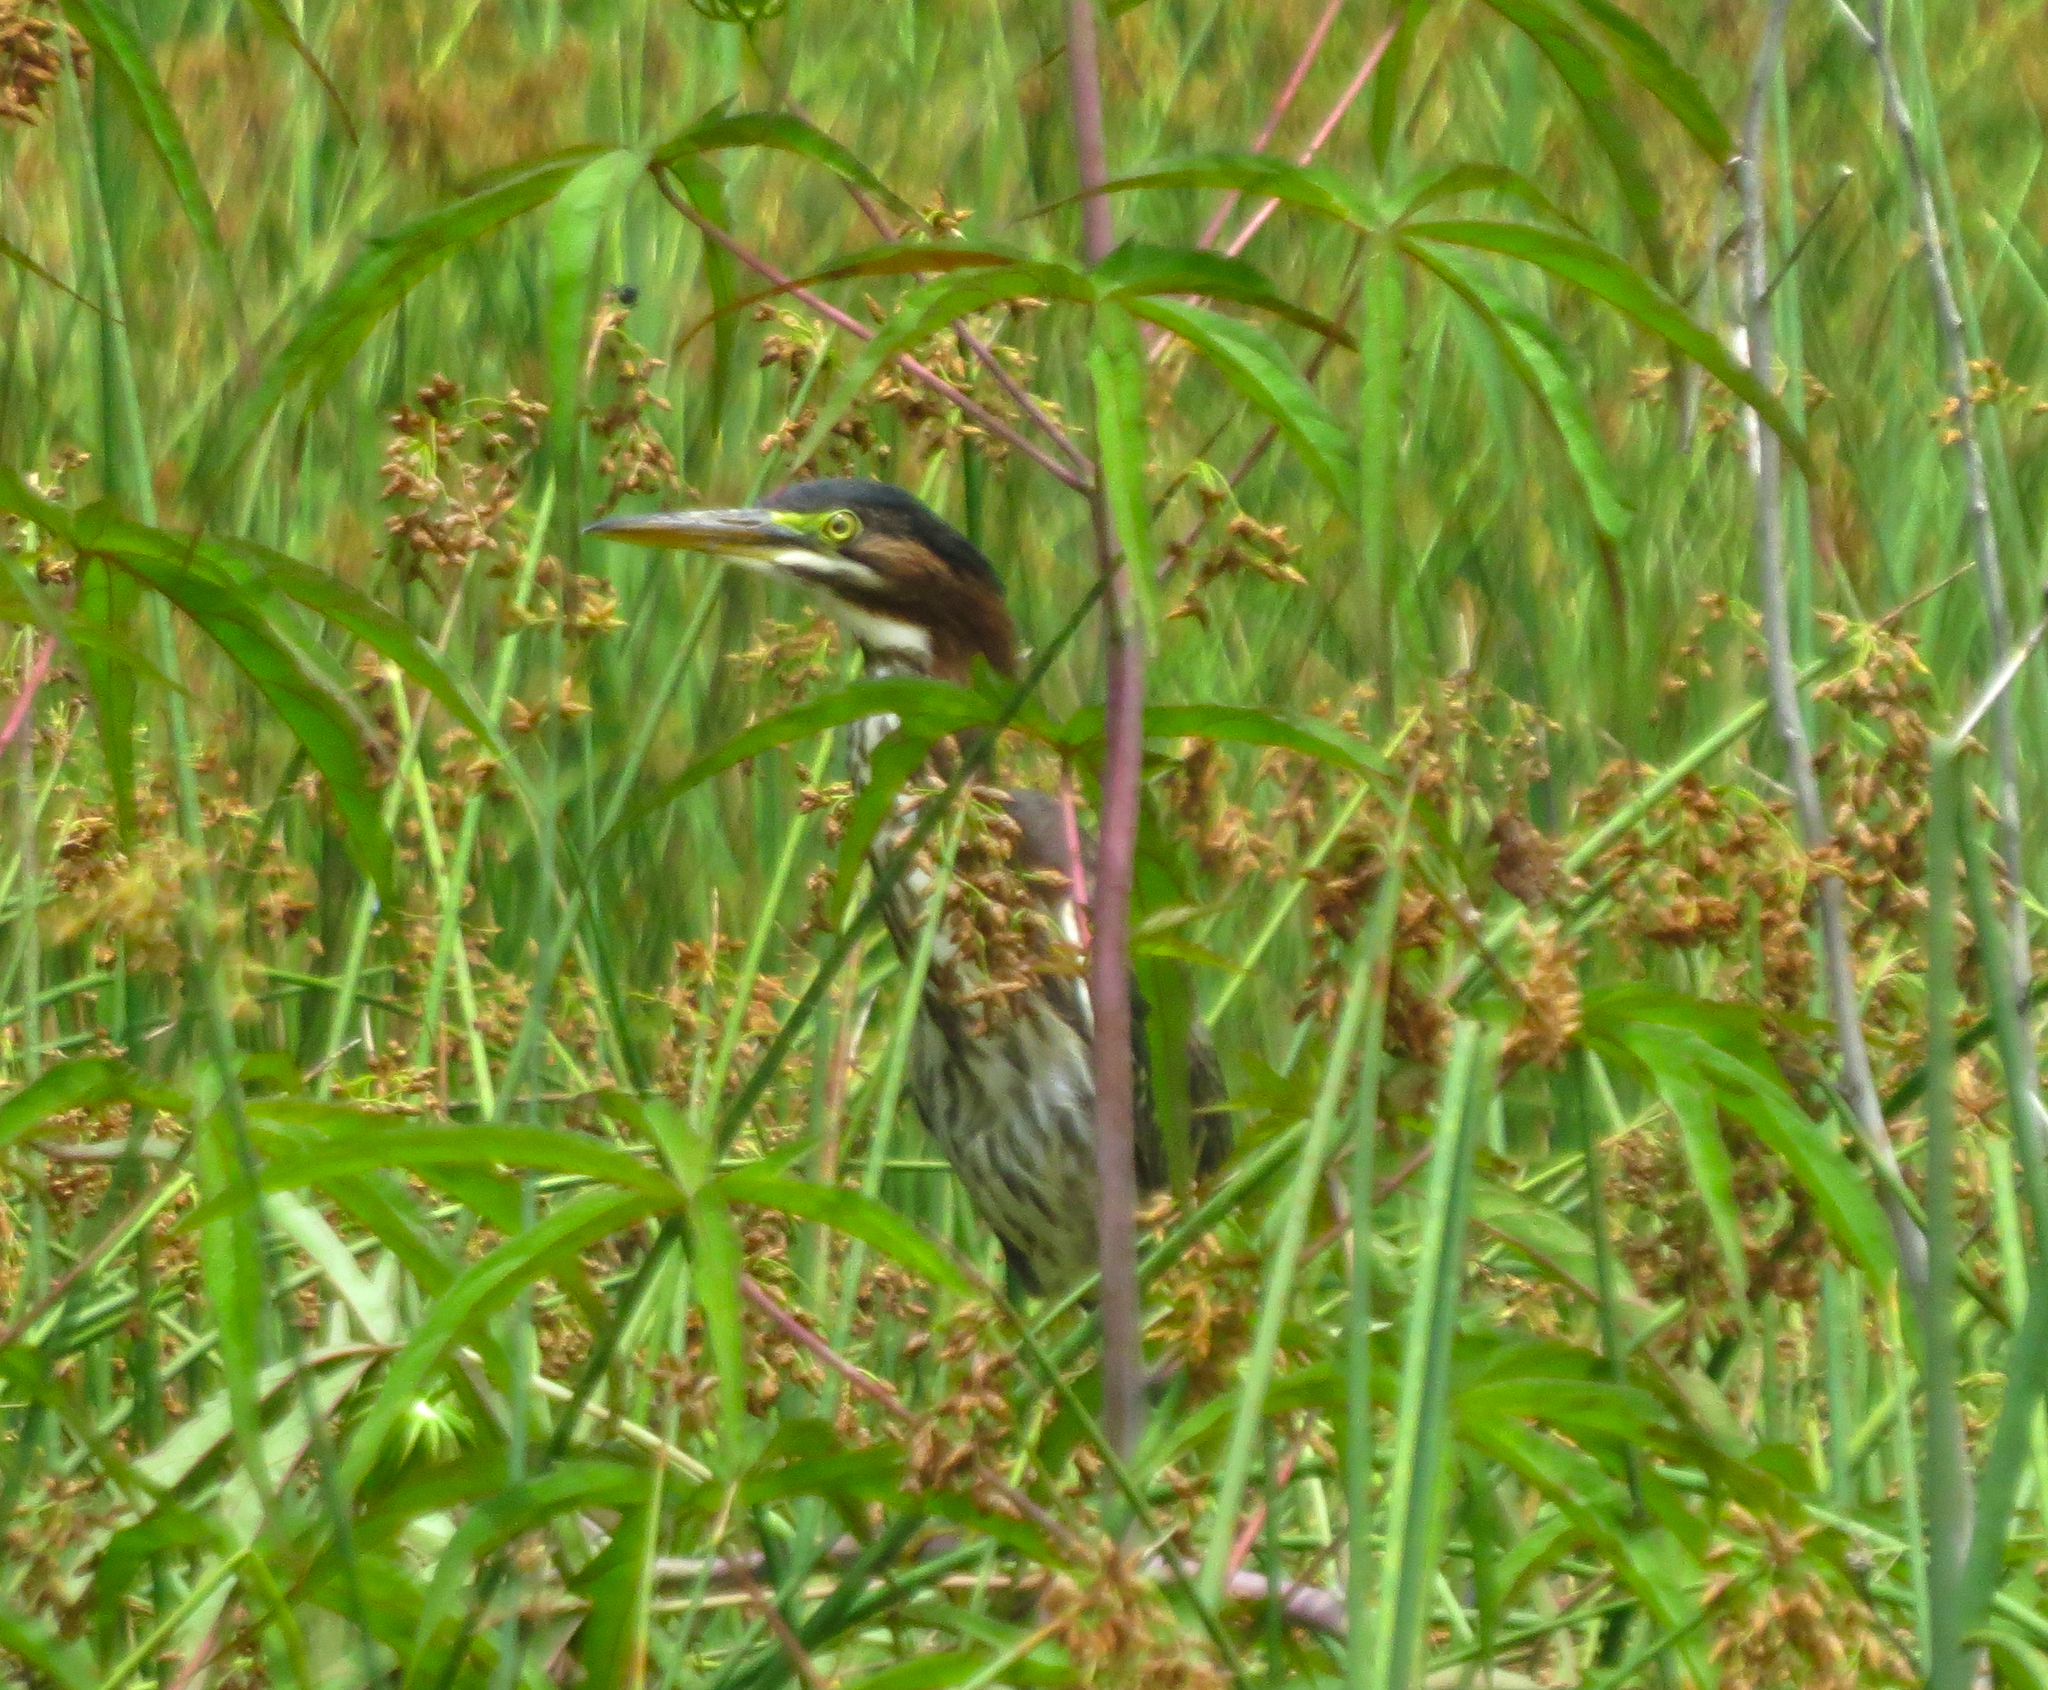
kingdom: Animalia
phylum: Chordata
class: Aves
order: Pelecaniformes
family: Ardeidae
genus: Butorides
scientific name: Butorides virescens
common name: Green heron
